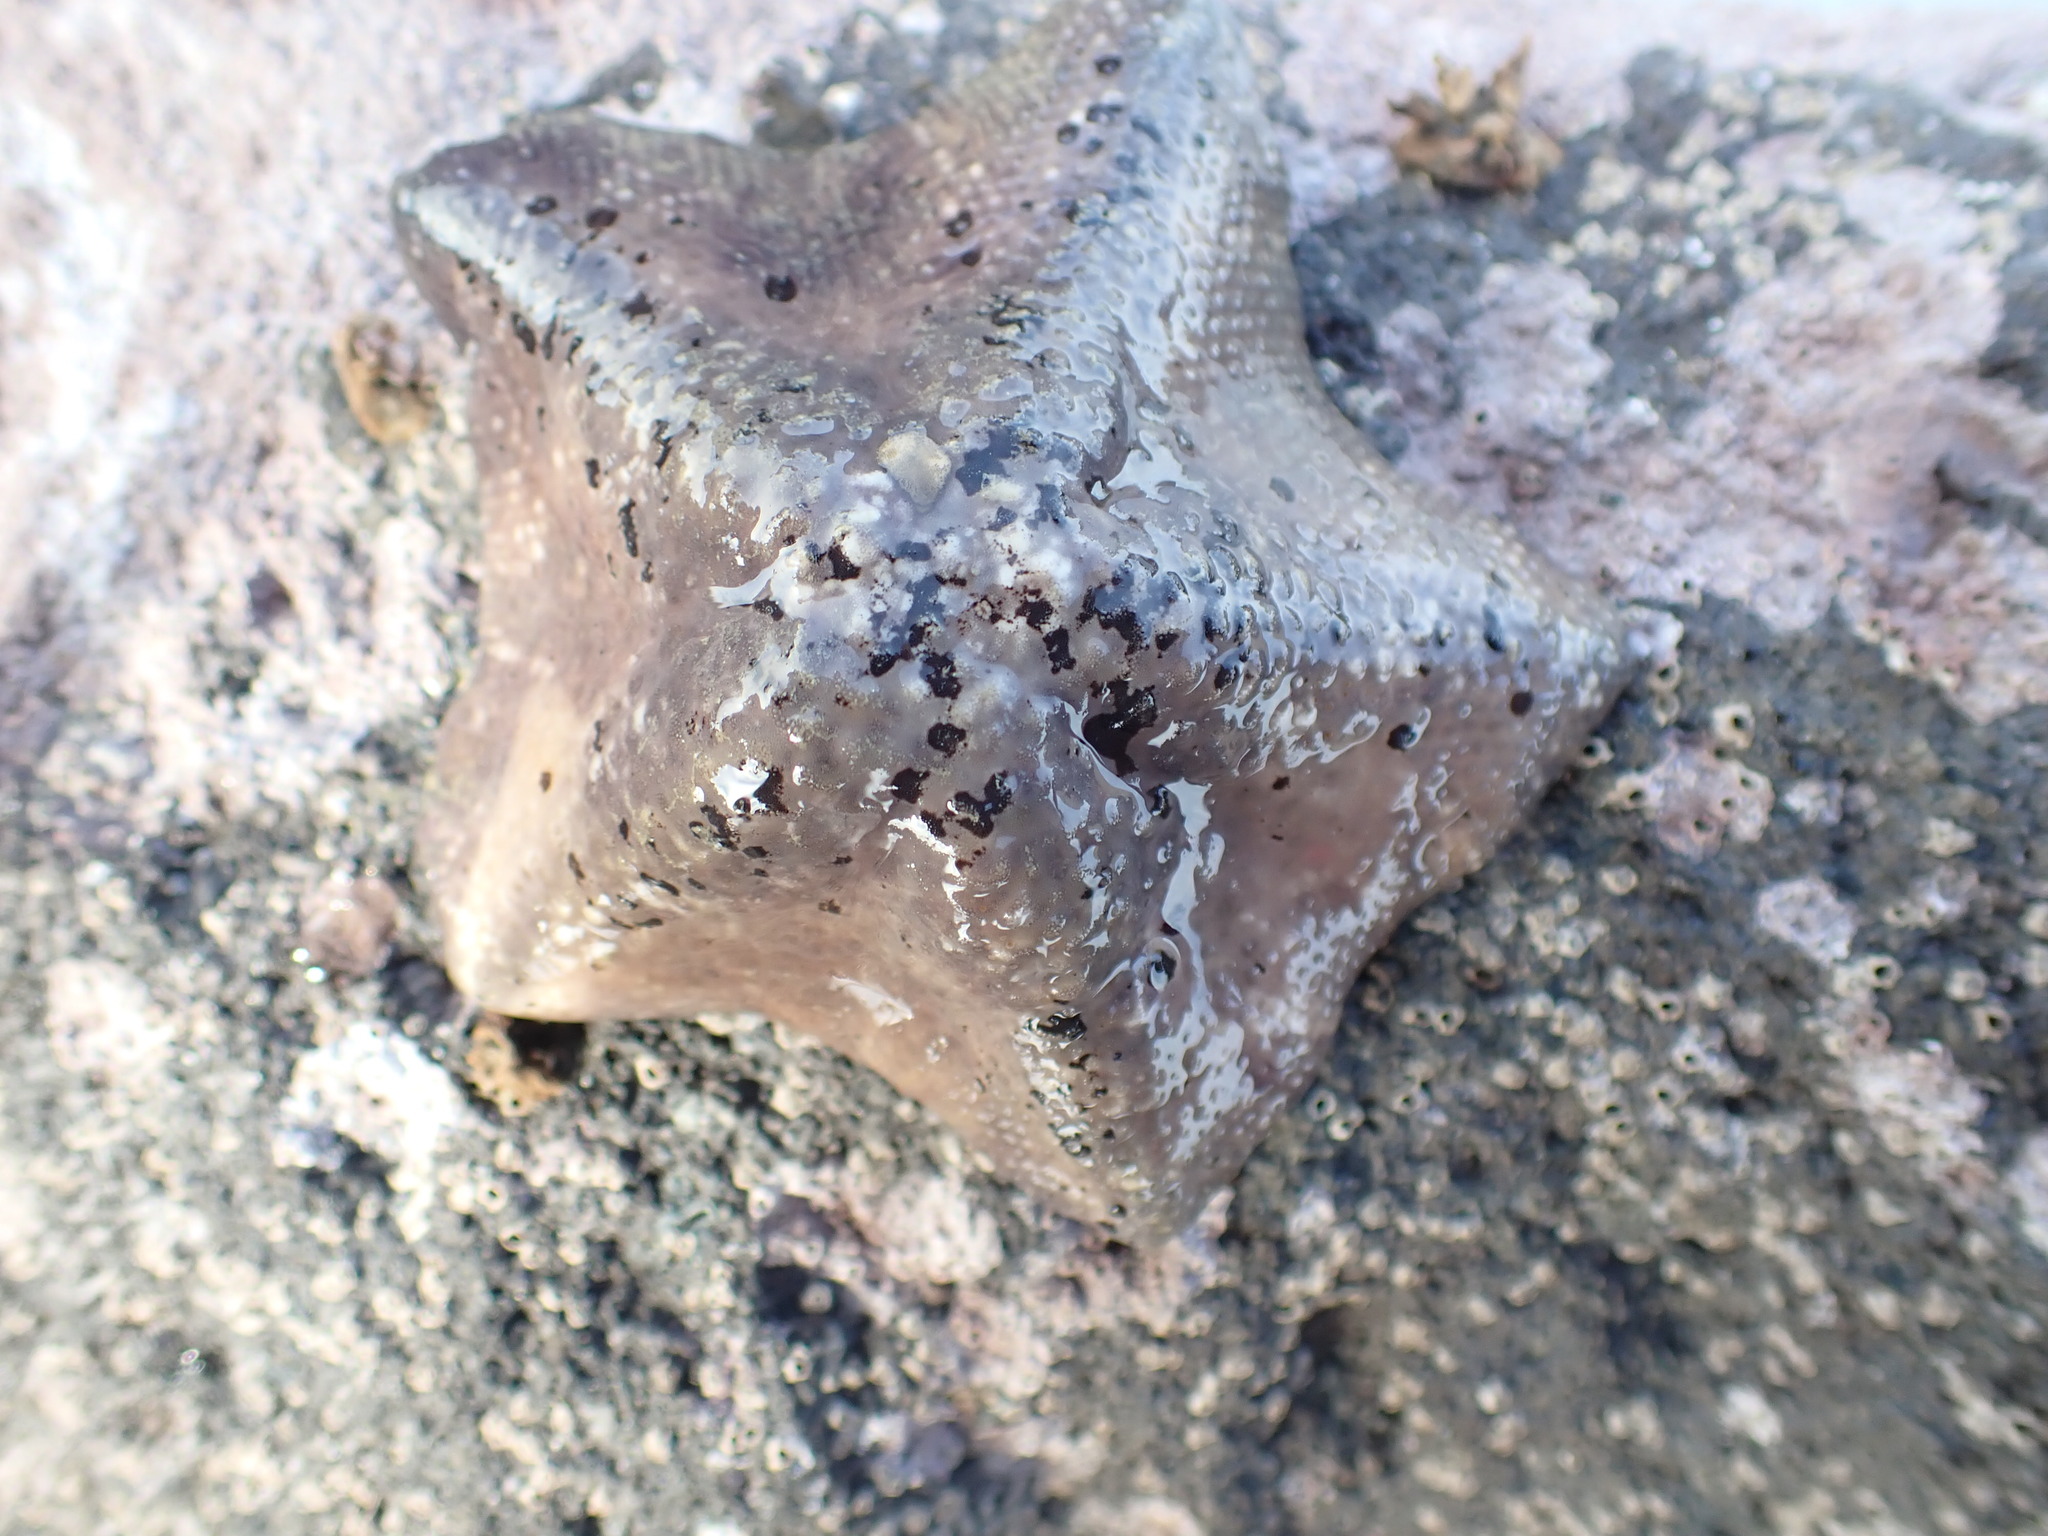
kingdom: Animalia
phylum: Echinodermata
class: Asteroidea
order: Valvatida
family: Asterinidae
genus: Stegnaster
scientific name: Stegnaster inflatus
